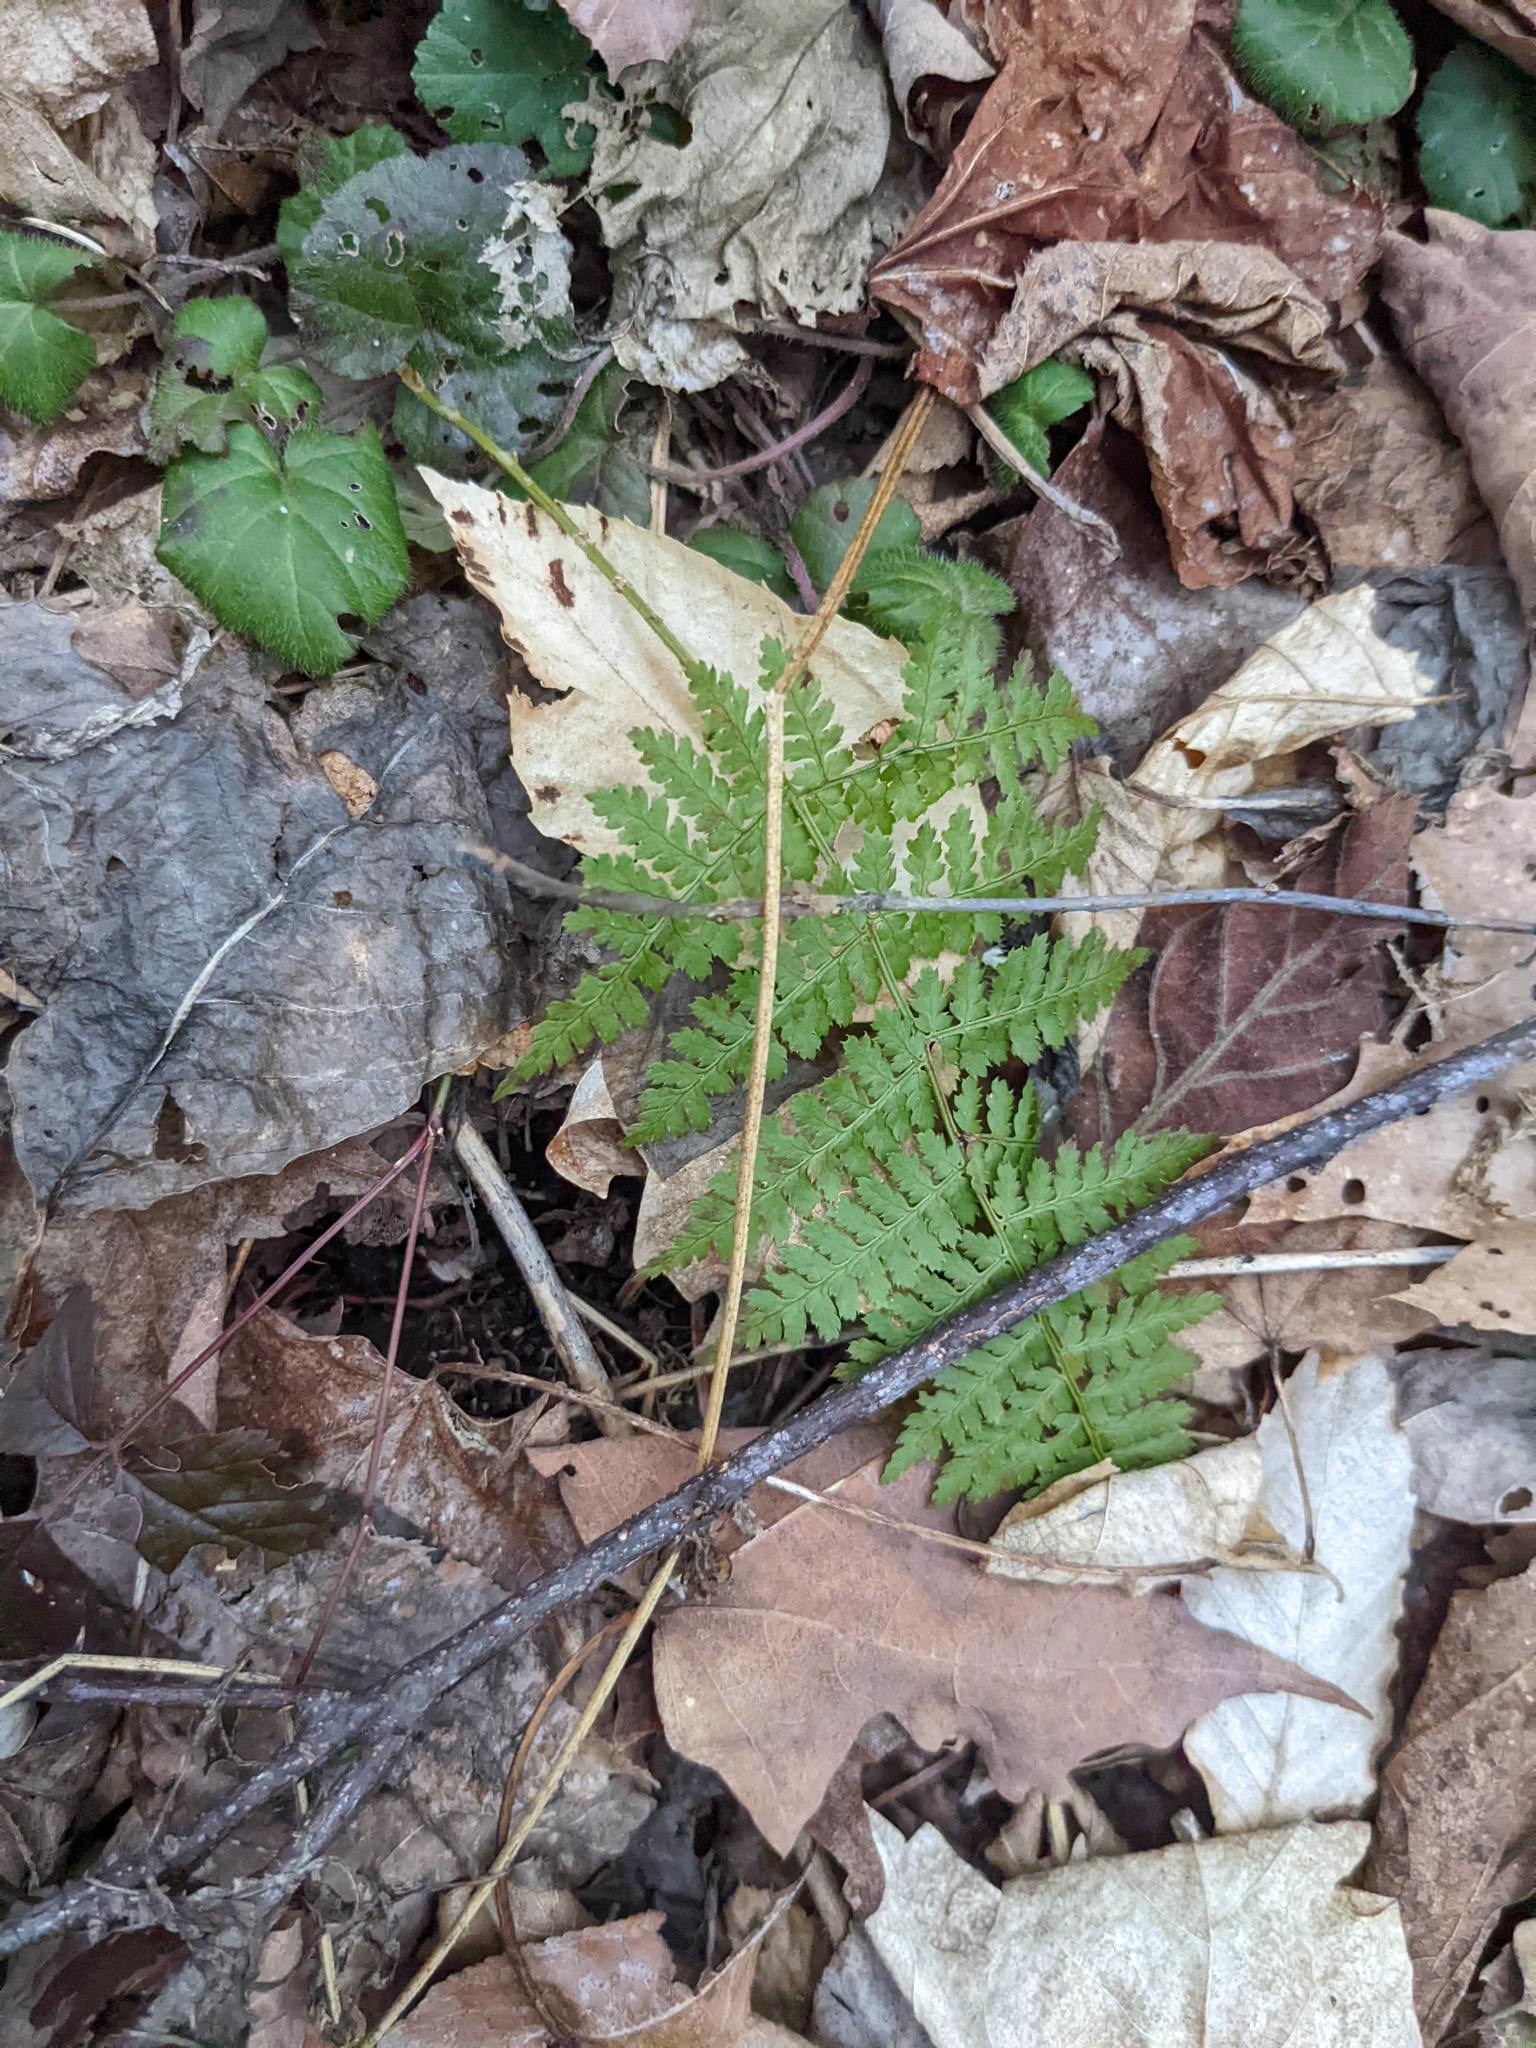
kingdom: Plantae
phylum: Tracheophyta
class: Polypodiopsida
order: Polypodiales
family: Dryopteridaceae
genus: Dryopteris
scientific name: Dryopteris intermedia
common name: Evergreen wood fern
